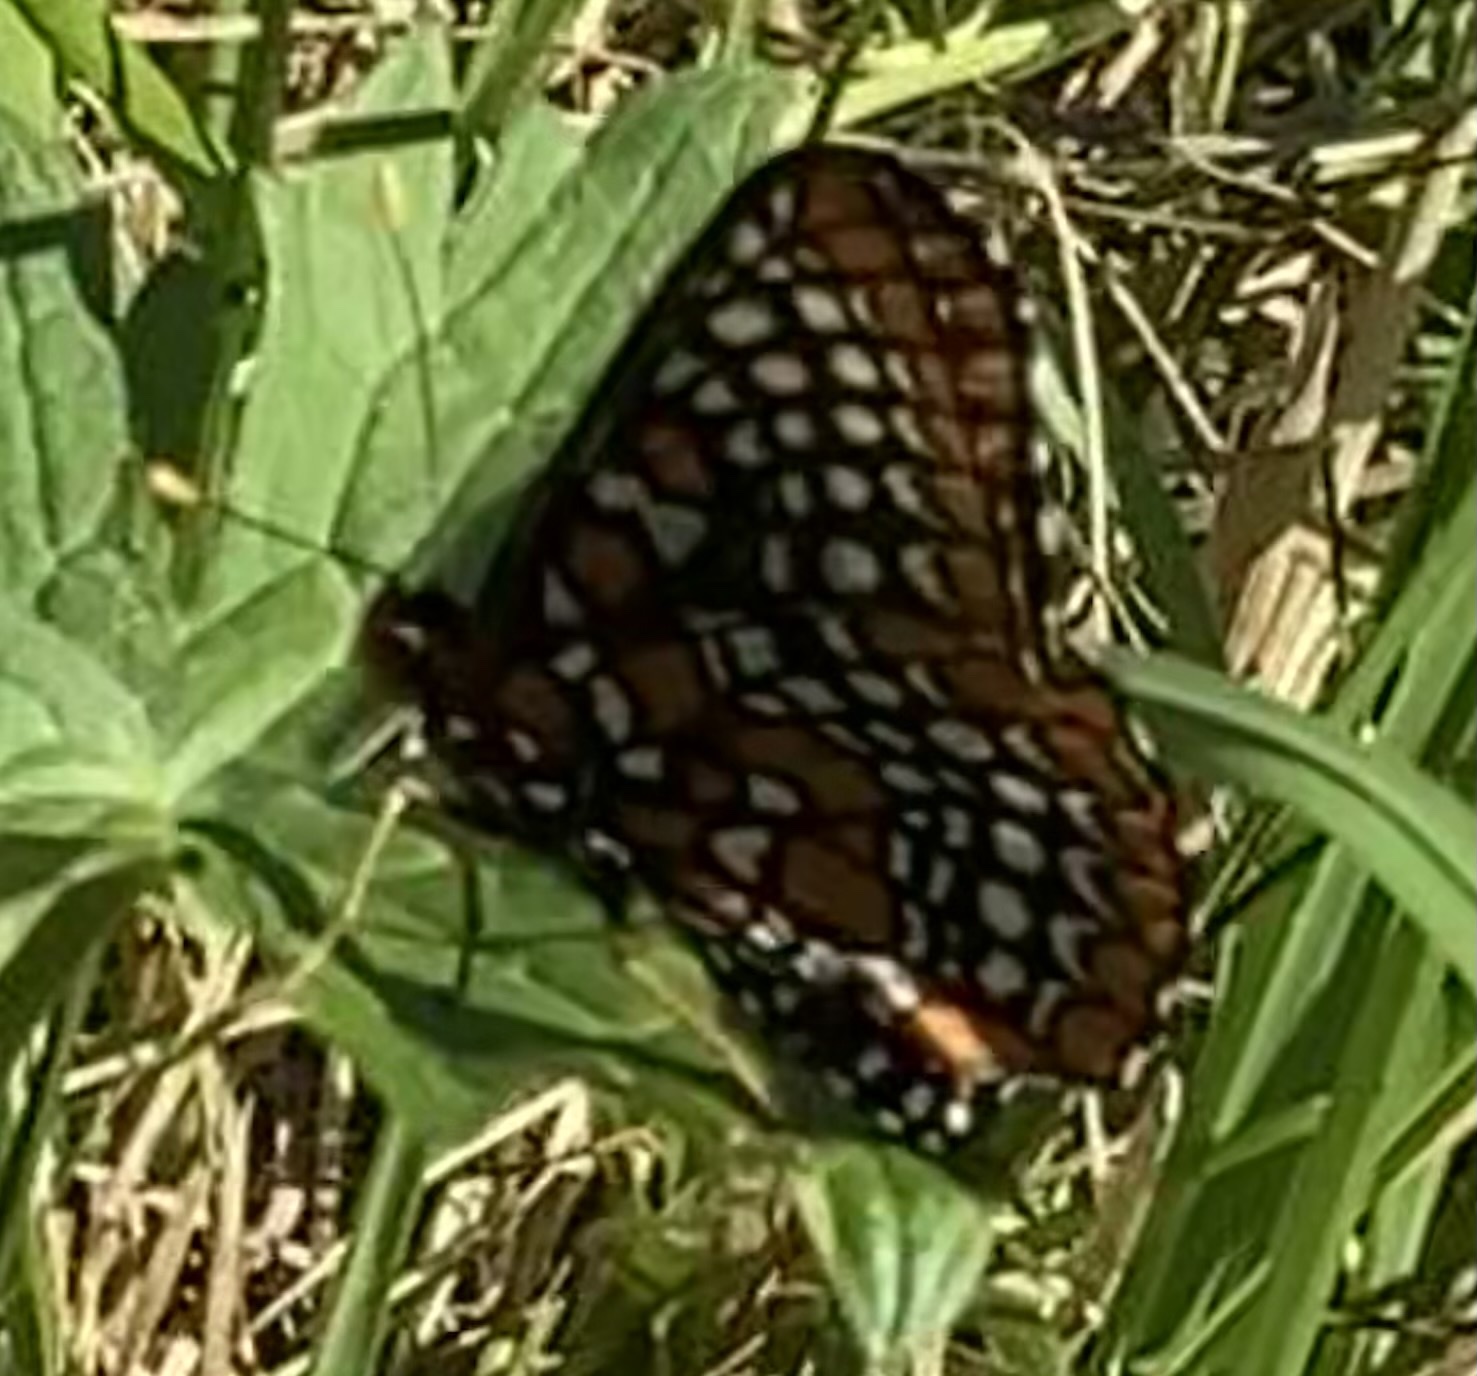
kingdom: Animalia
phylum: Arthropoda
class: Insecta
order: Lepidoptera
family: Nymphalidae
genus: Euphydryas
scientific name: Euphydryas phaeton
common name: Baltimore checkerspot
